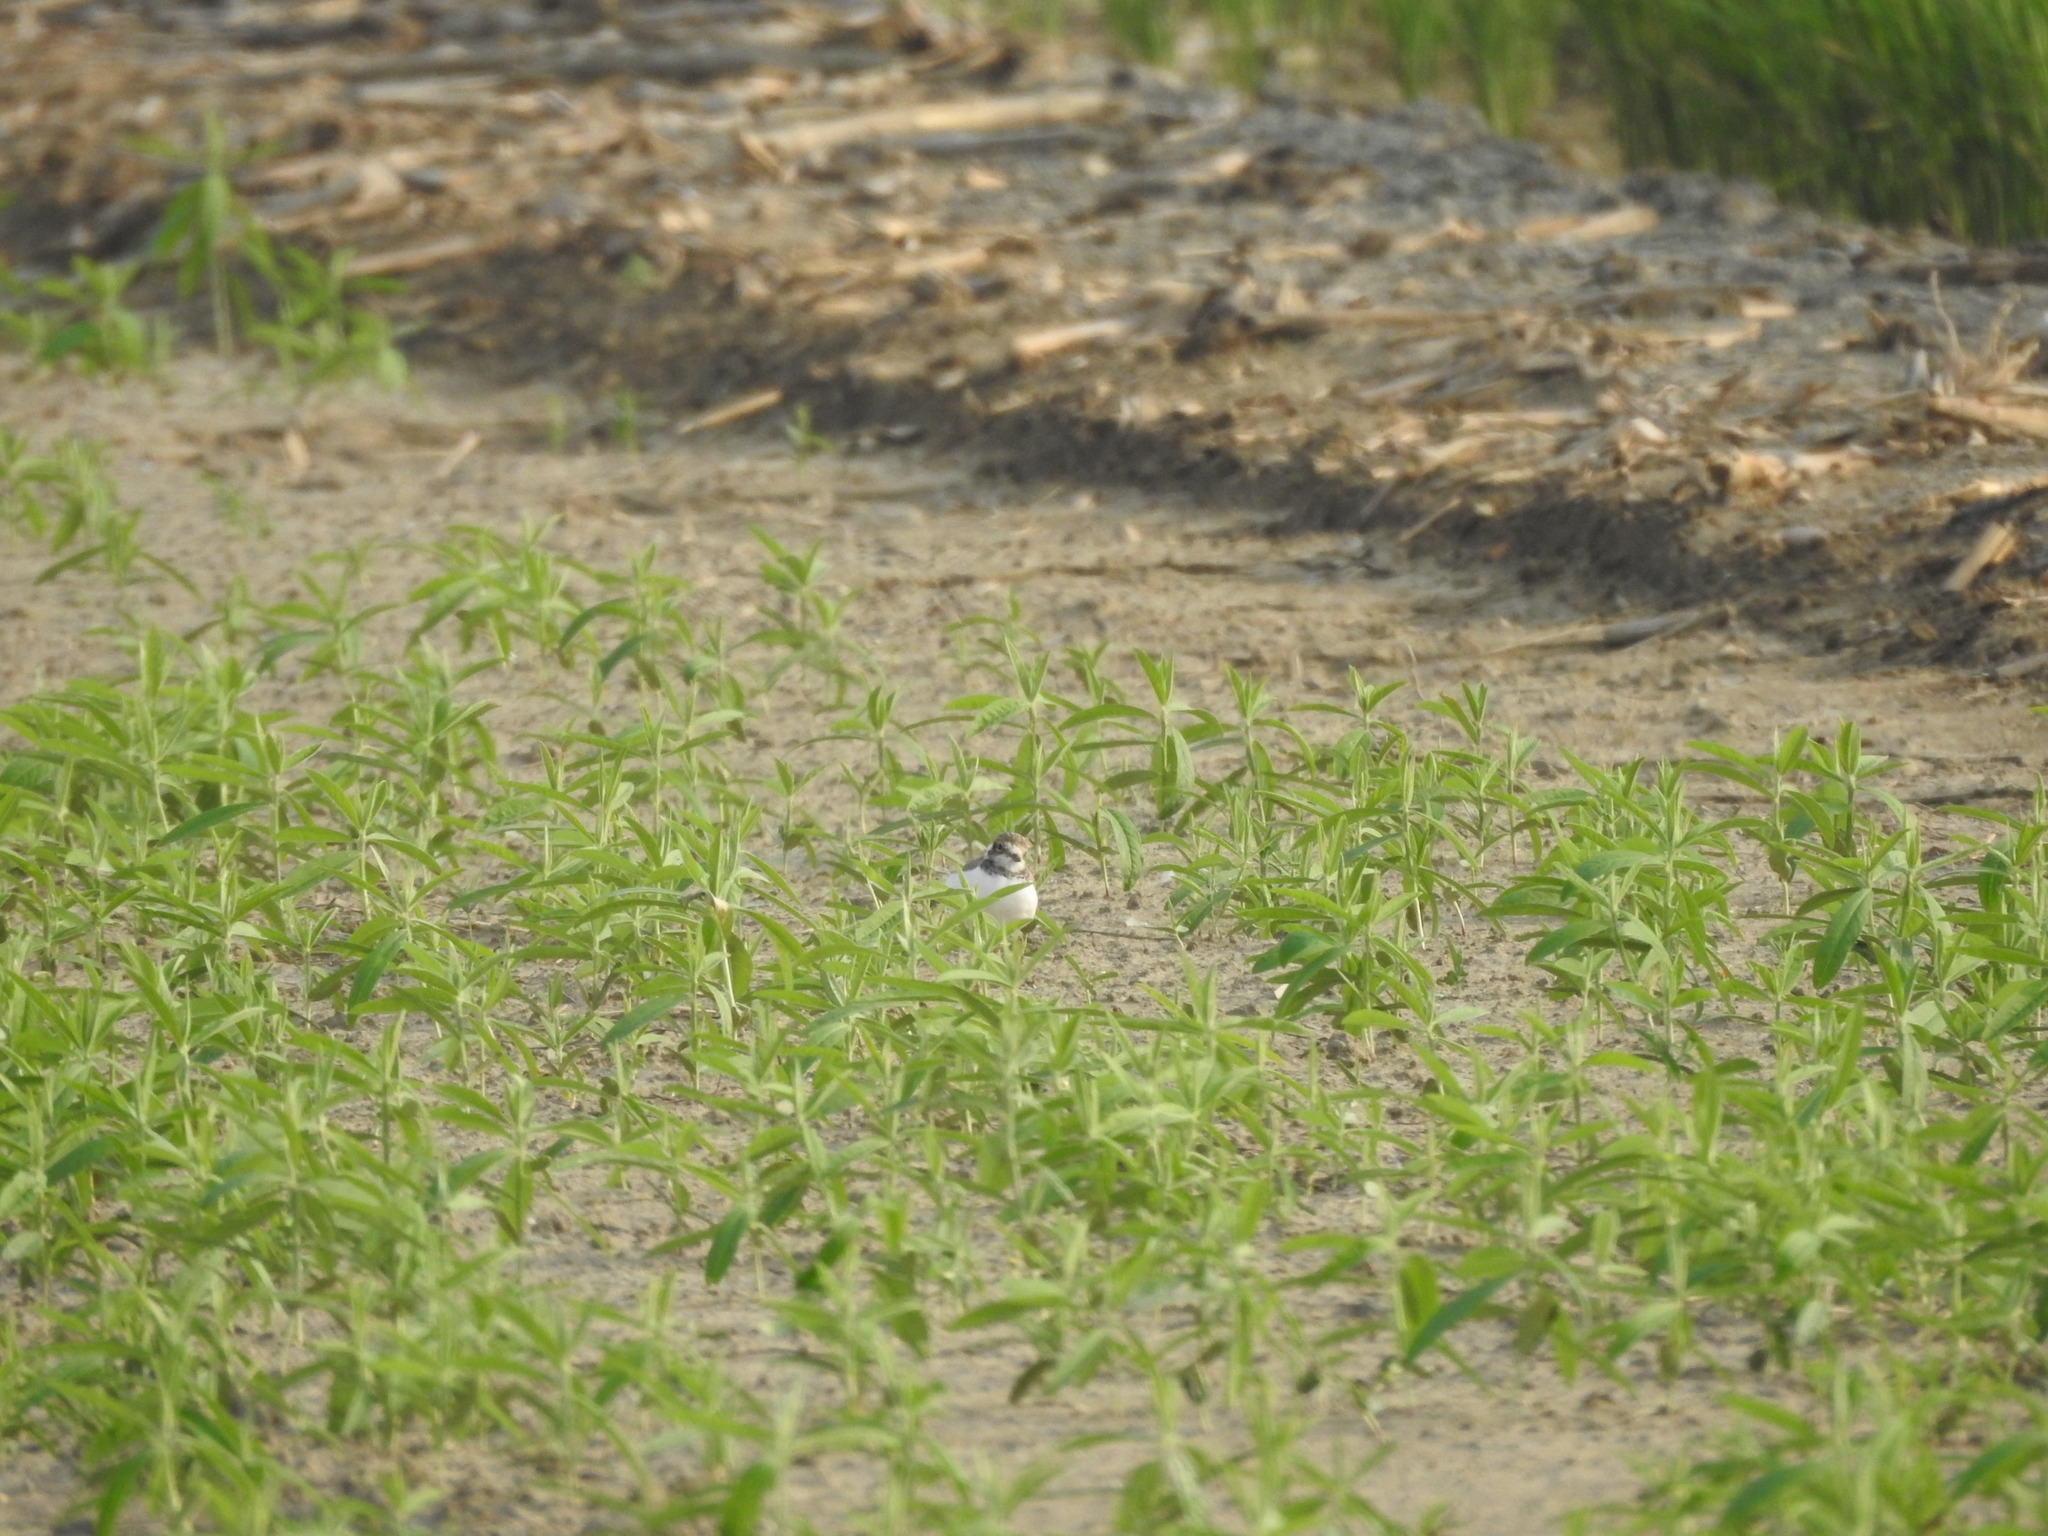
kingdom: Animalia
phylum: Chordata
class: Aves
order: Charadriiformes
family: Charadriidae
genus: Charadrius
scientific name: Charadrius dubius
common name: Little ringed plover
